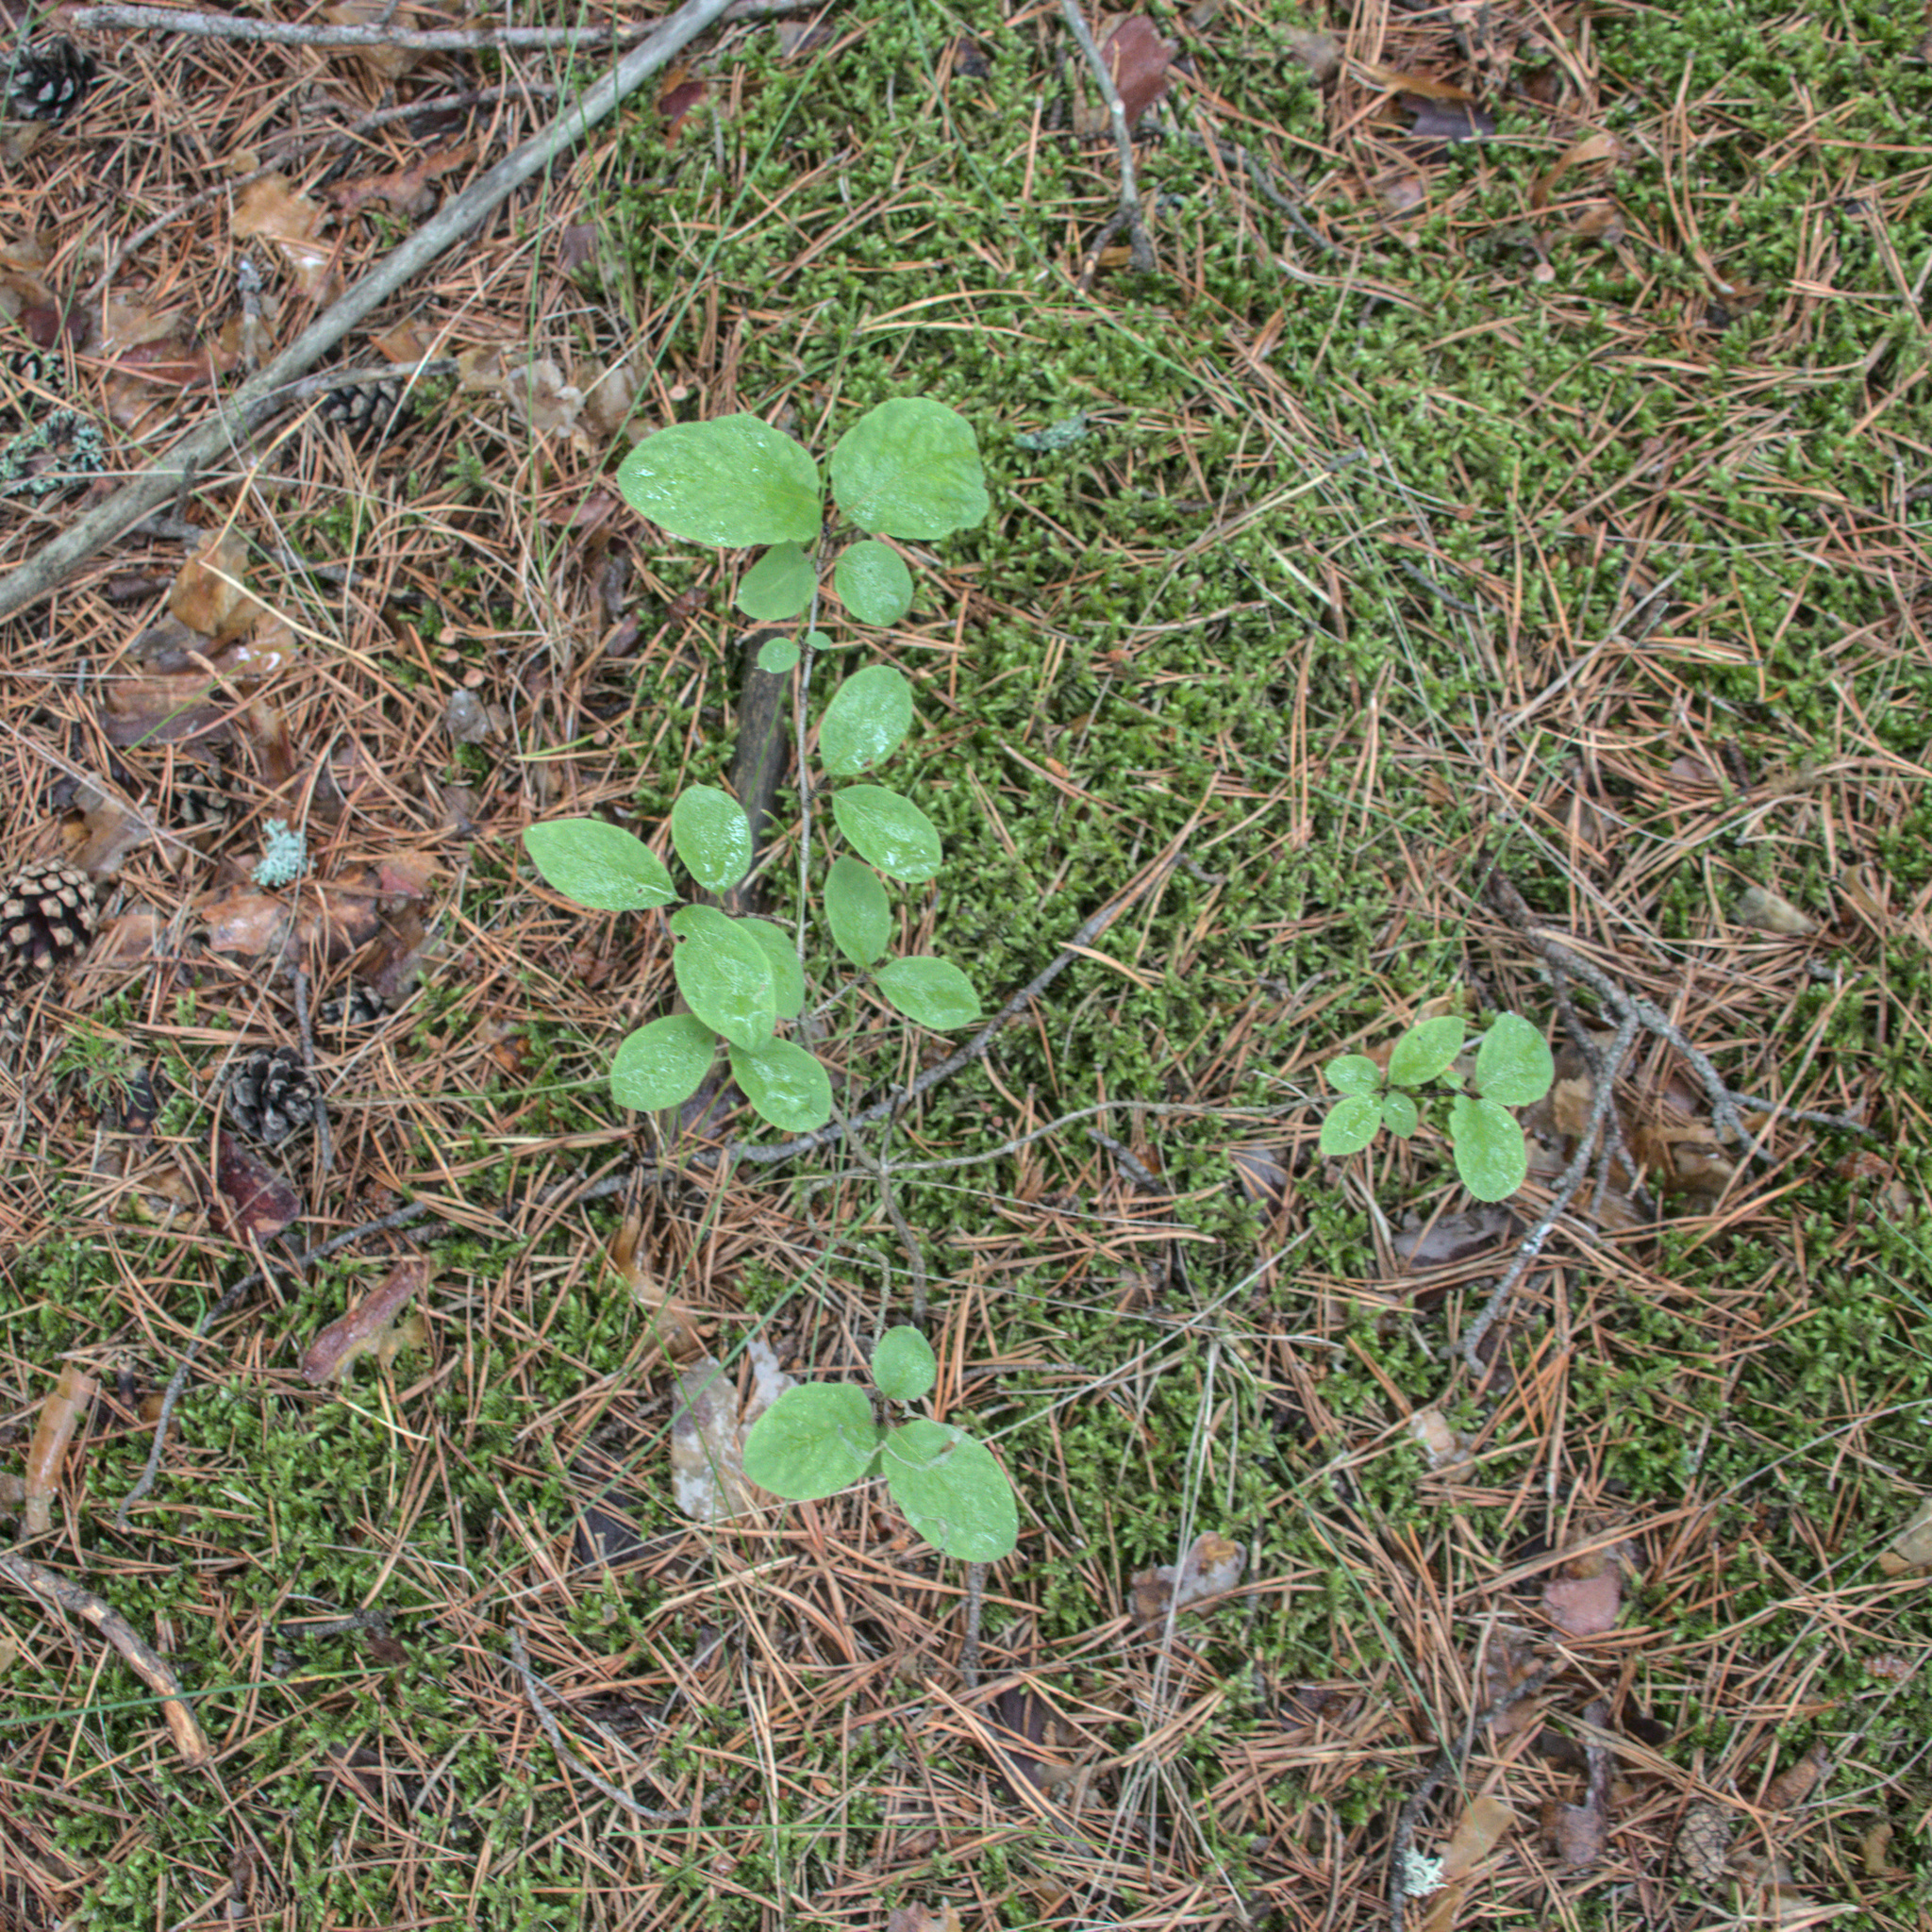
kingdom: Plantae
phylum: Tracheophyta
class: Magnoliopsida
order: Dipsacales
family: Caprifoliaceae
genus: Lonicera
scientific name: Lonicera xylosteum
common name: Fly honeysuckle
